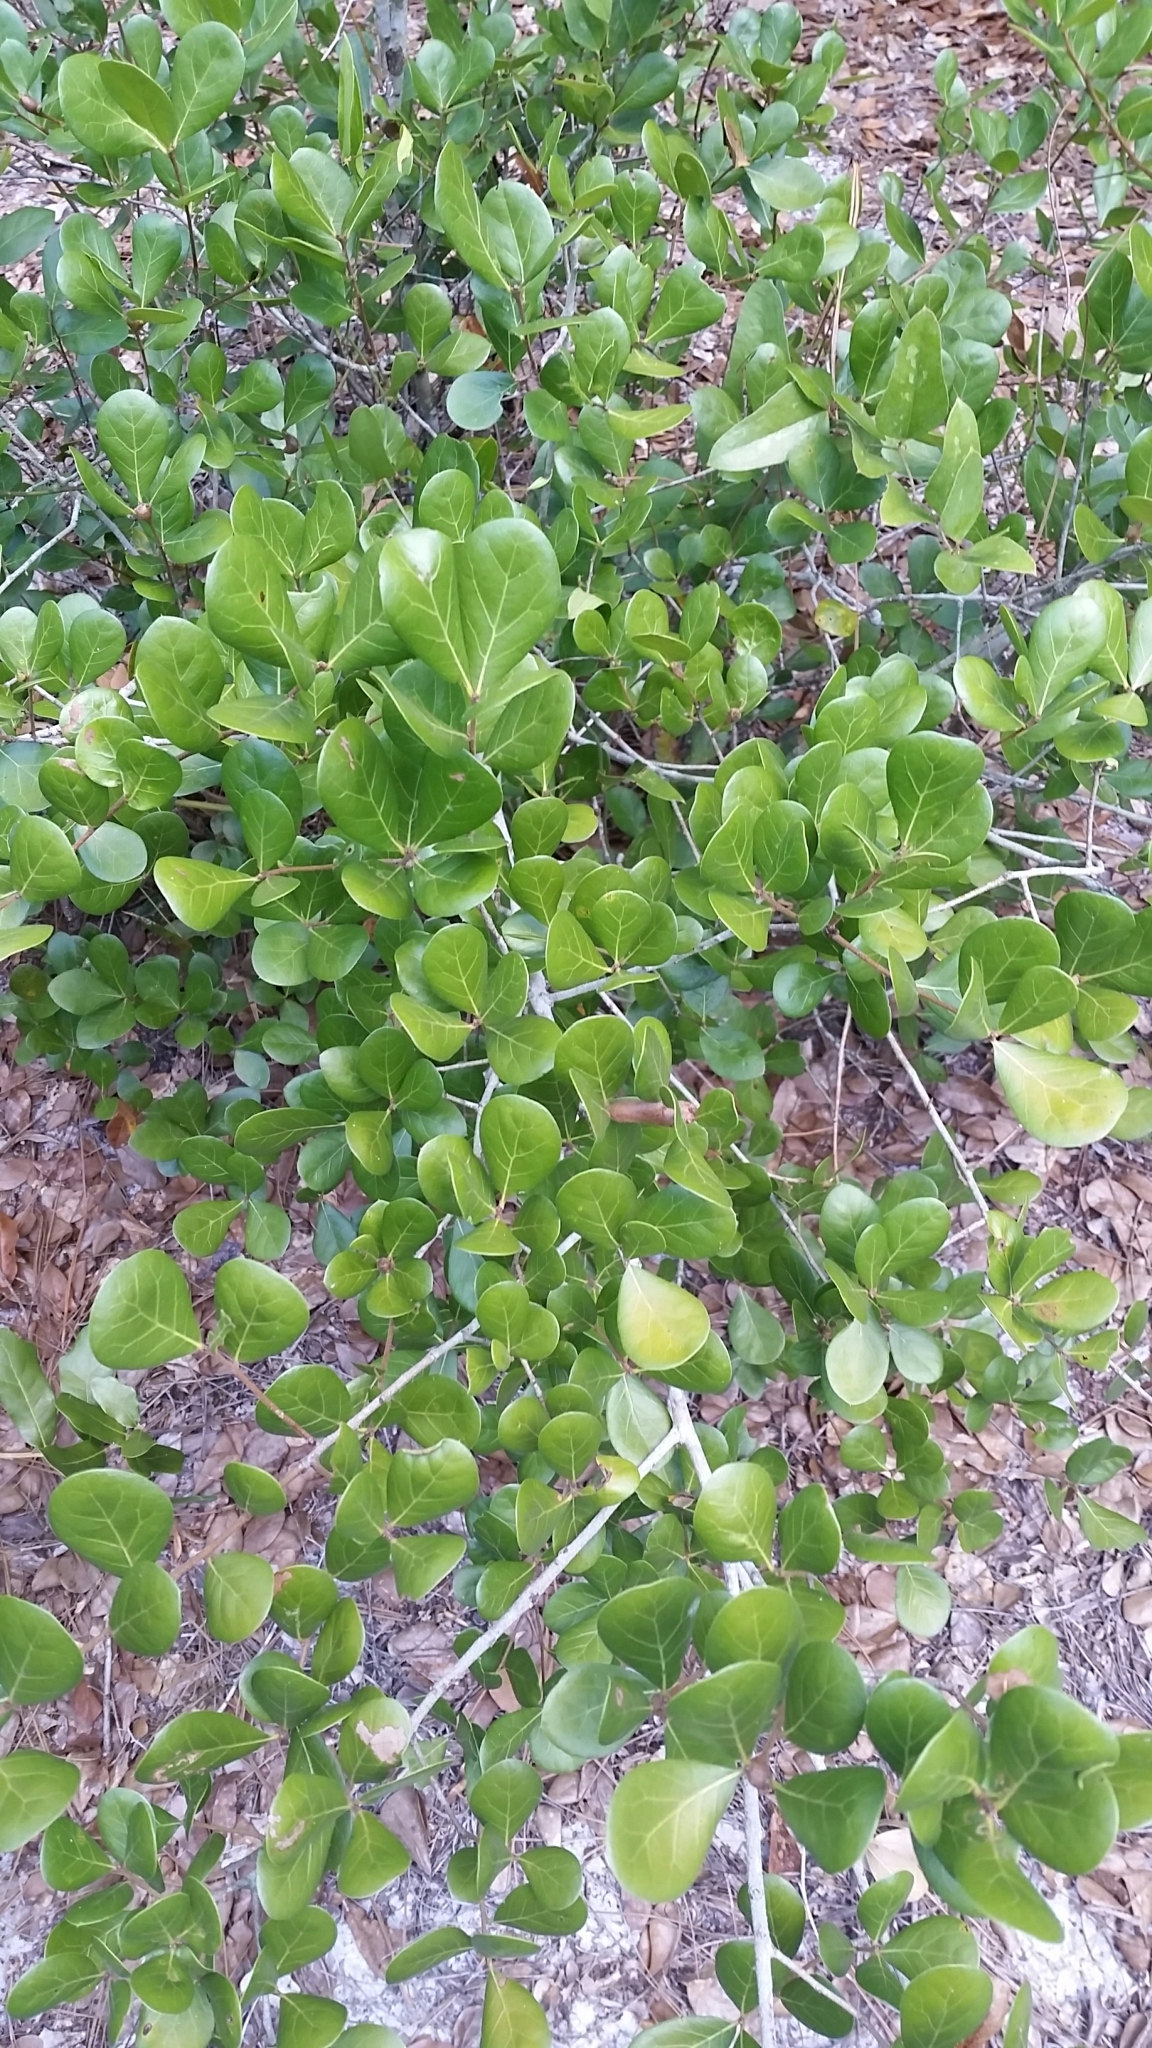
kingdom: Plantae
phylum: Tracheophyta
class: Magnoliopsida
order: Fagales
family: Fagaceae
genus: Quercus
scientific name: Quercus myrtifolia
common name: Myrtle oak
